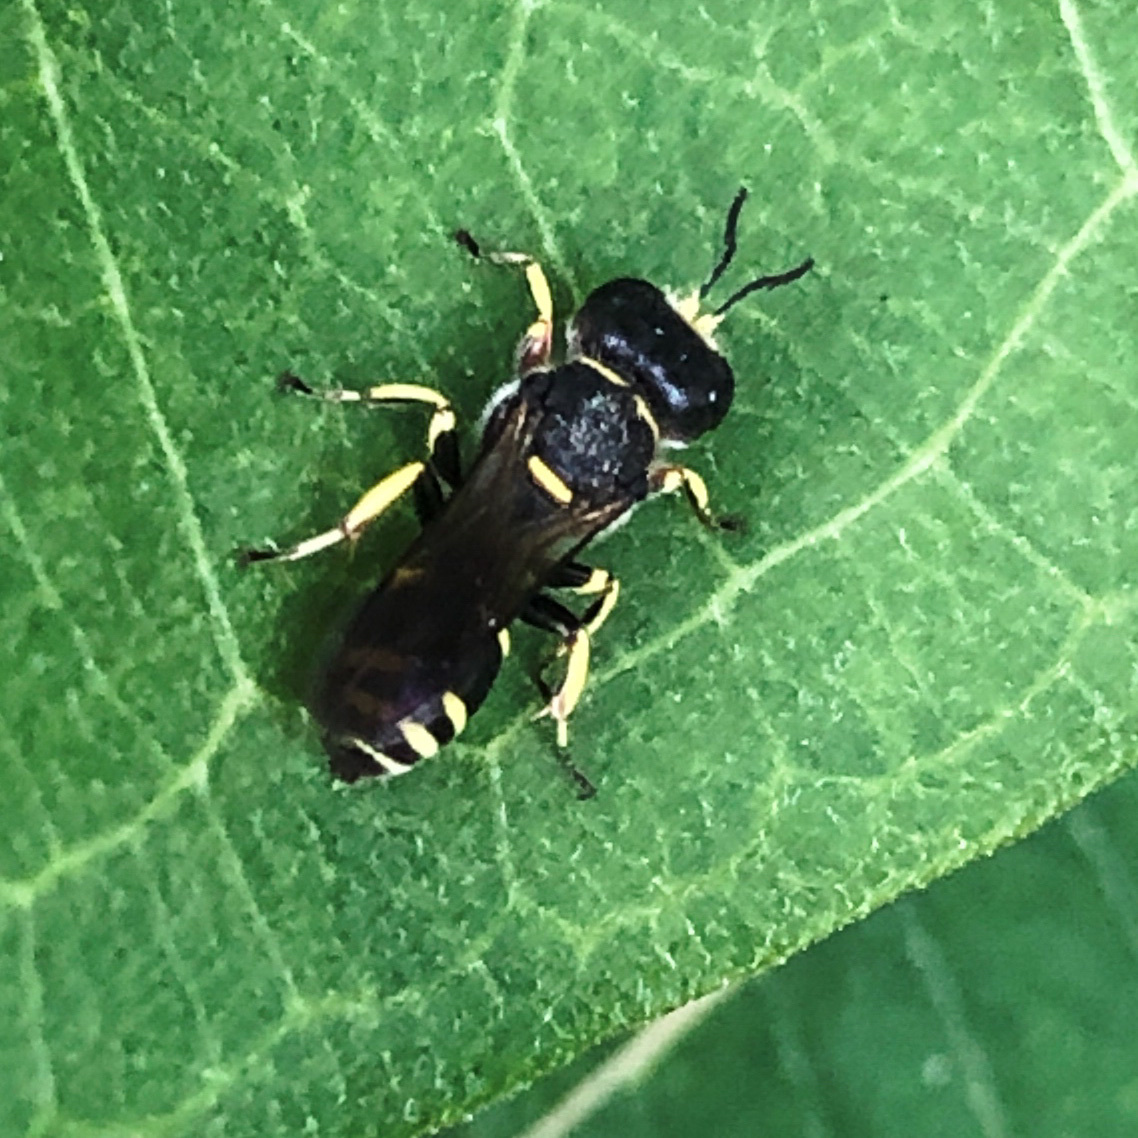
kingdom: Animalia
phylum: Arthropoda
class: Insecta
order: Hymenoptera
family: Crabronidae
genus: Ectemnius
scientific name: Ectemnius continuus
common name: Common ectemnius
